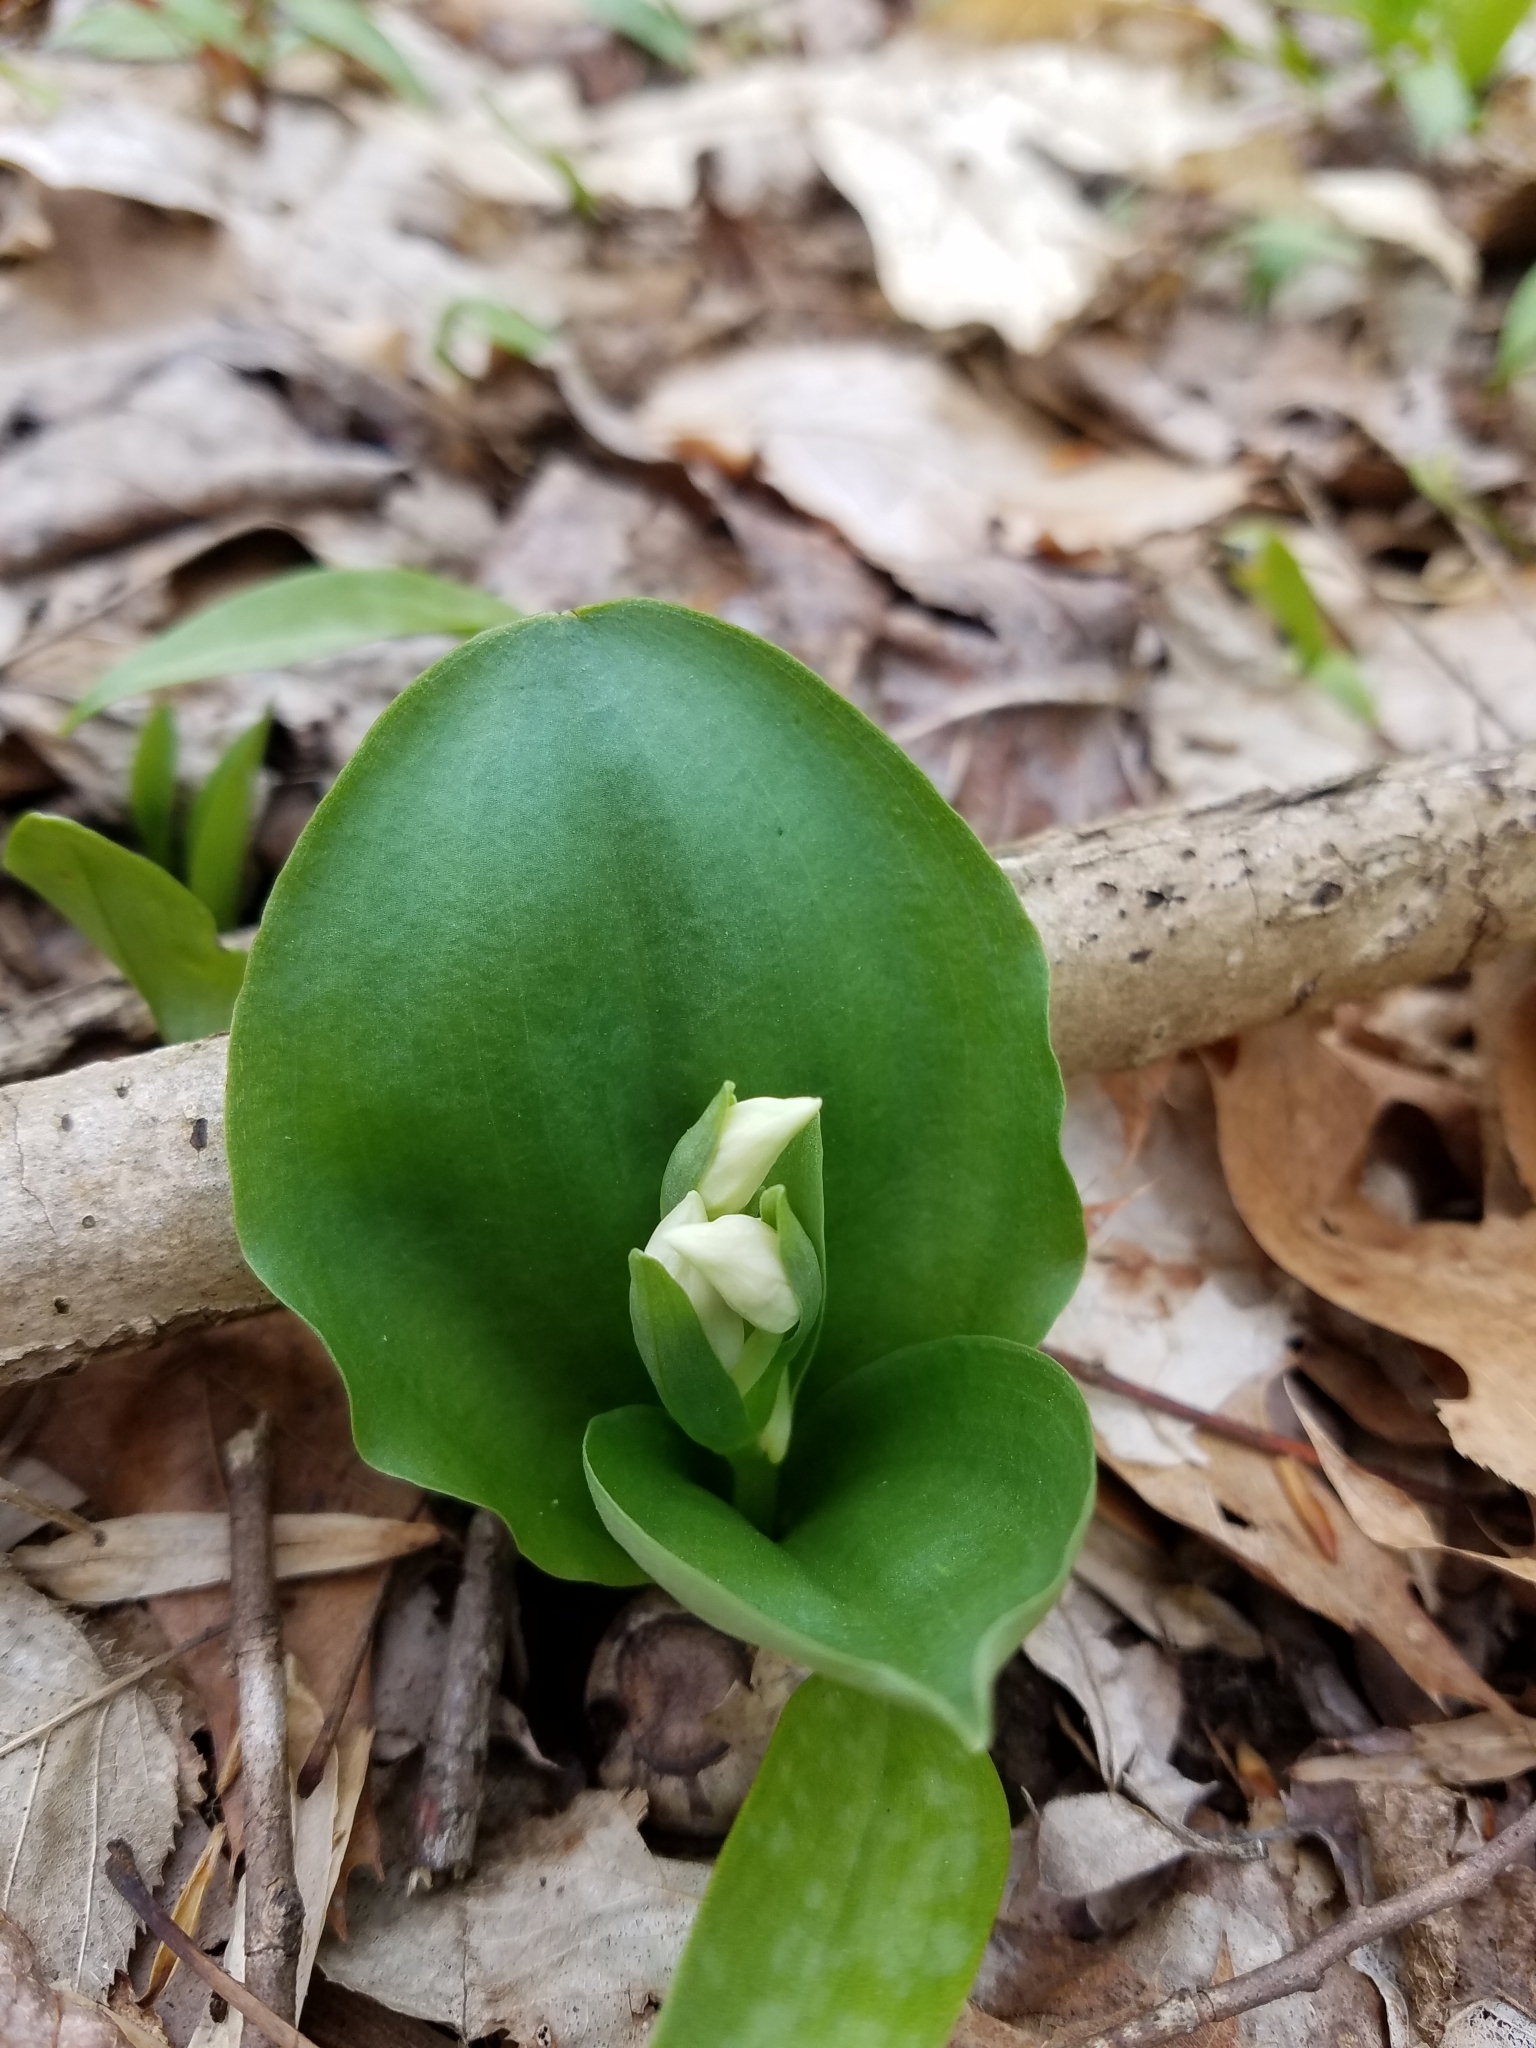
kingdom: Plantae
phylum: Tracheophyta
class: Liliopsida
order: Asparagales
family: Orchidaceae
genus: Galearis
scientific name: Galearis spectabilis
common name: Purple-hooded orchis
